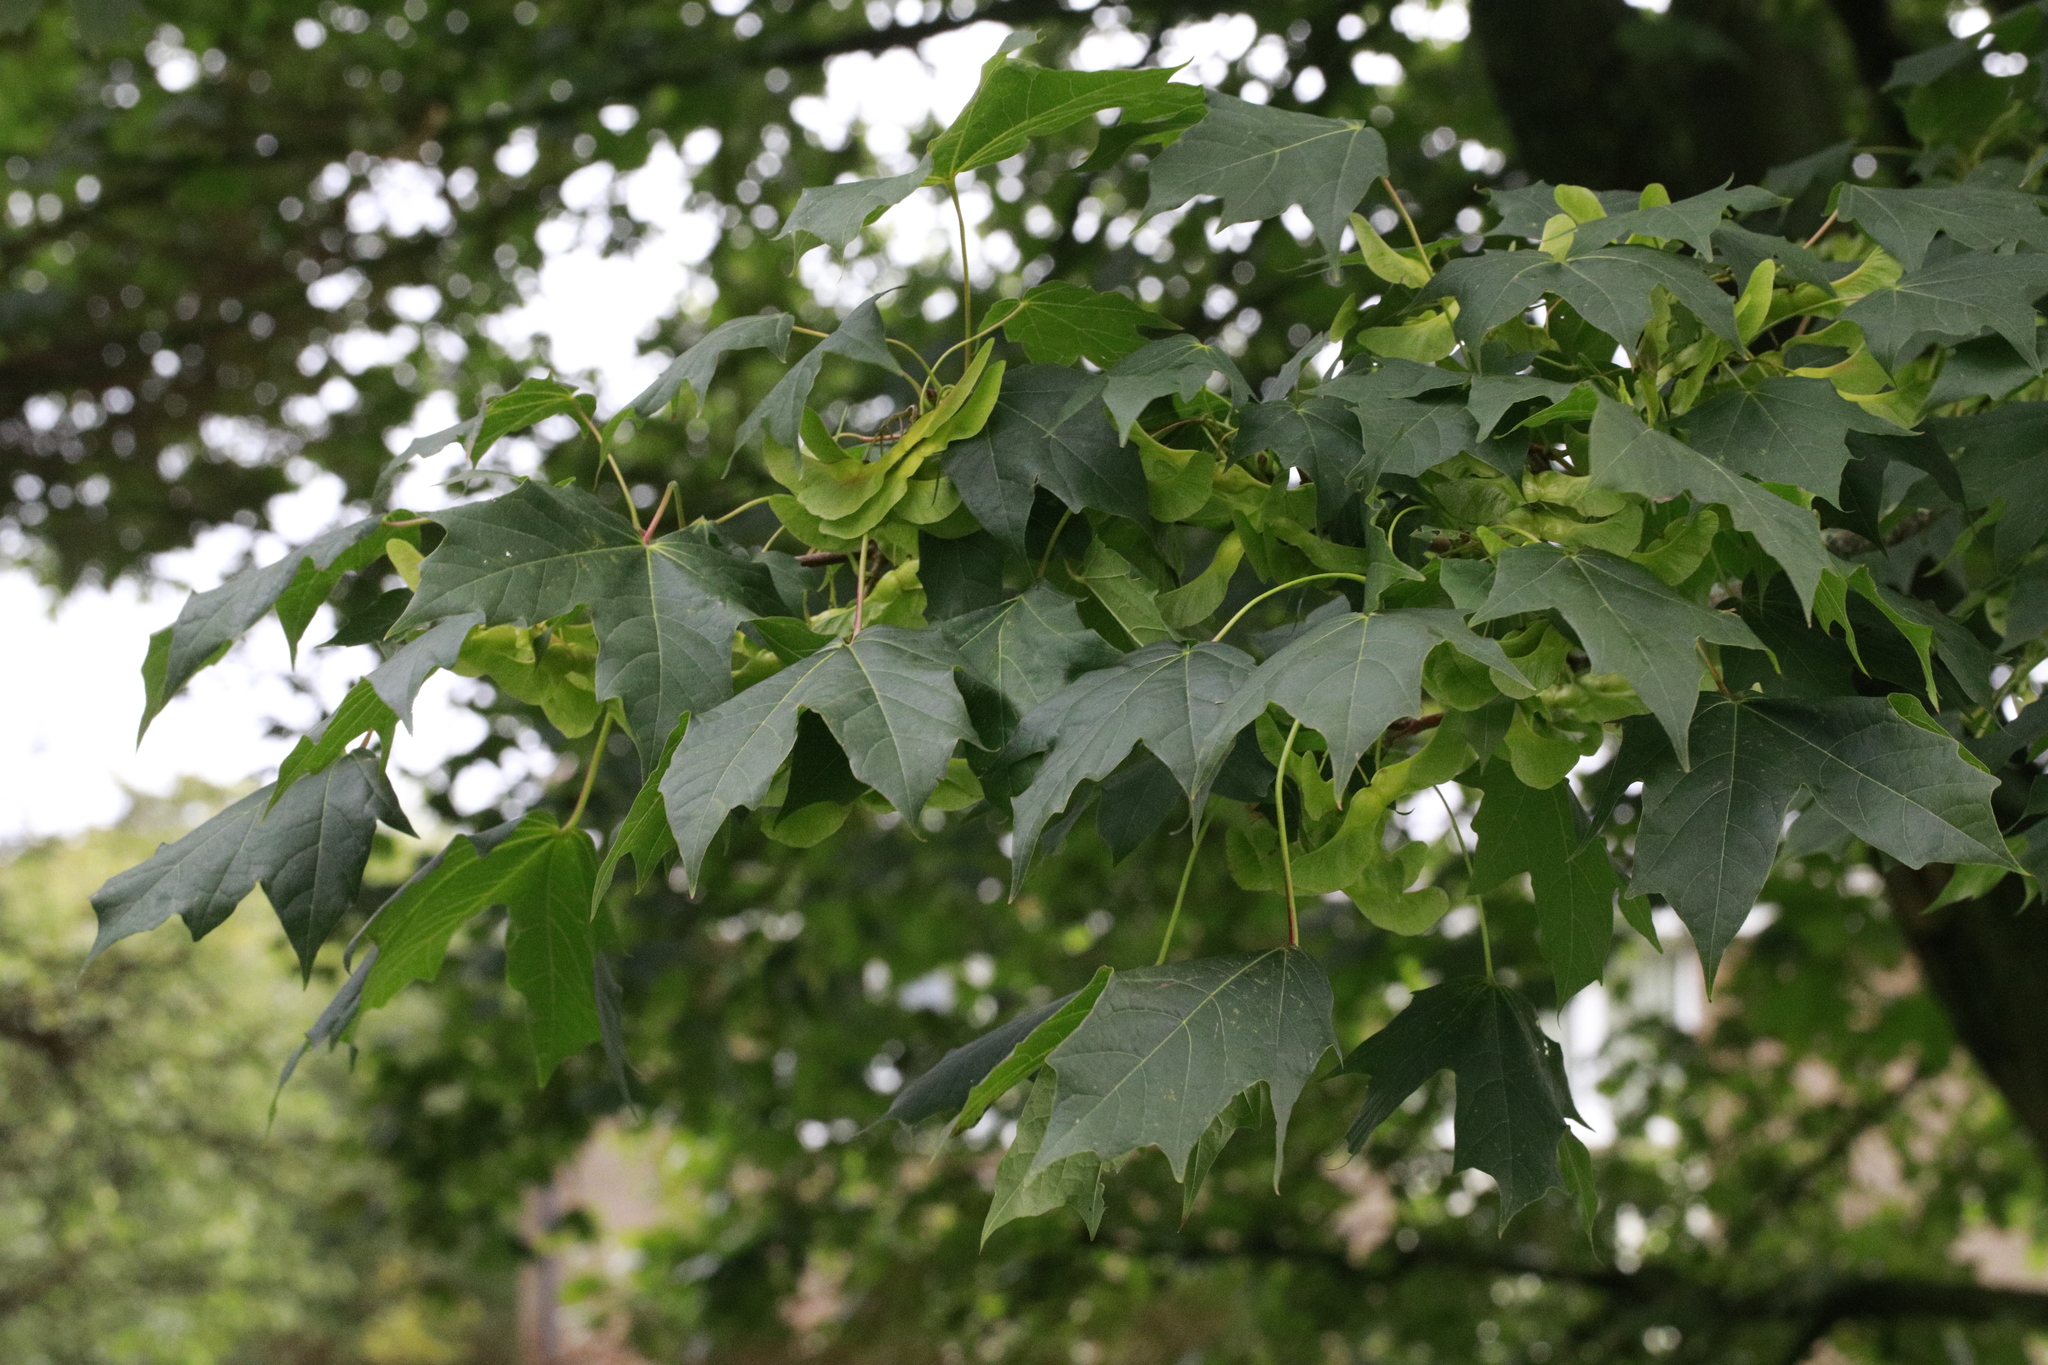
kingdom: Plantae
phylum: Tracheophyta
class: Magnoliopsida
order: Sapindales
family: Sapindaceae
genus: Acer
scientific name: Acer platanoides
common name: Norway maple
